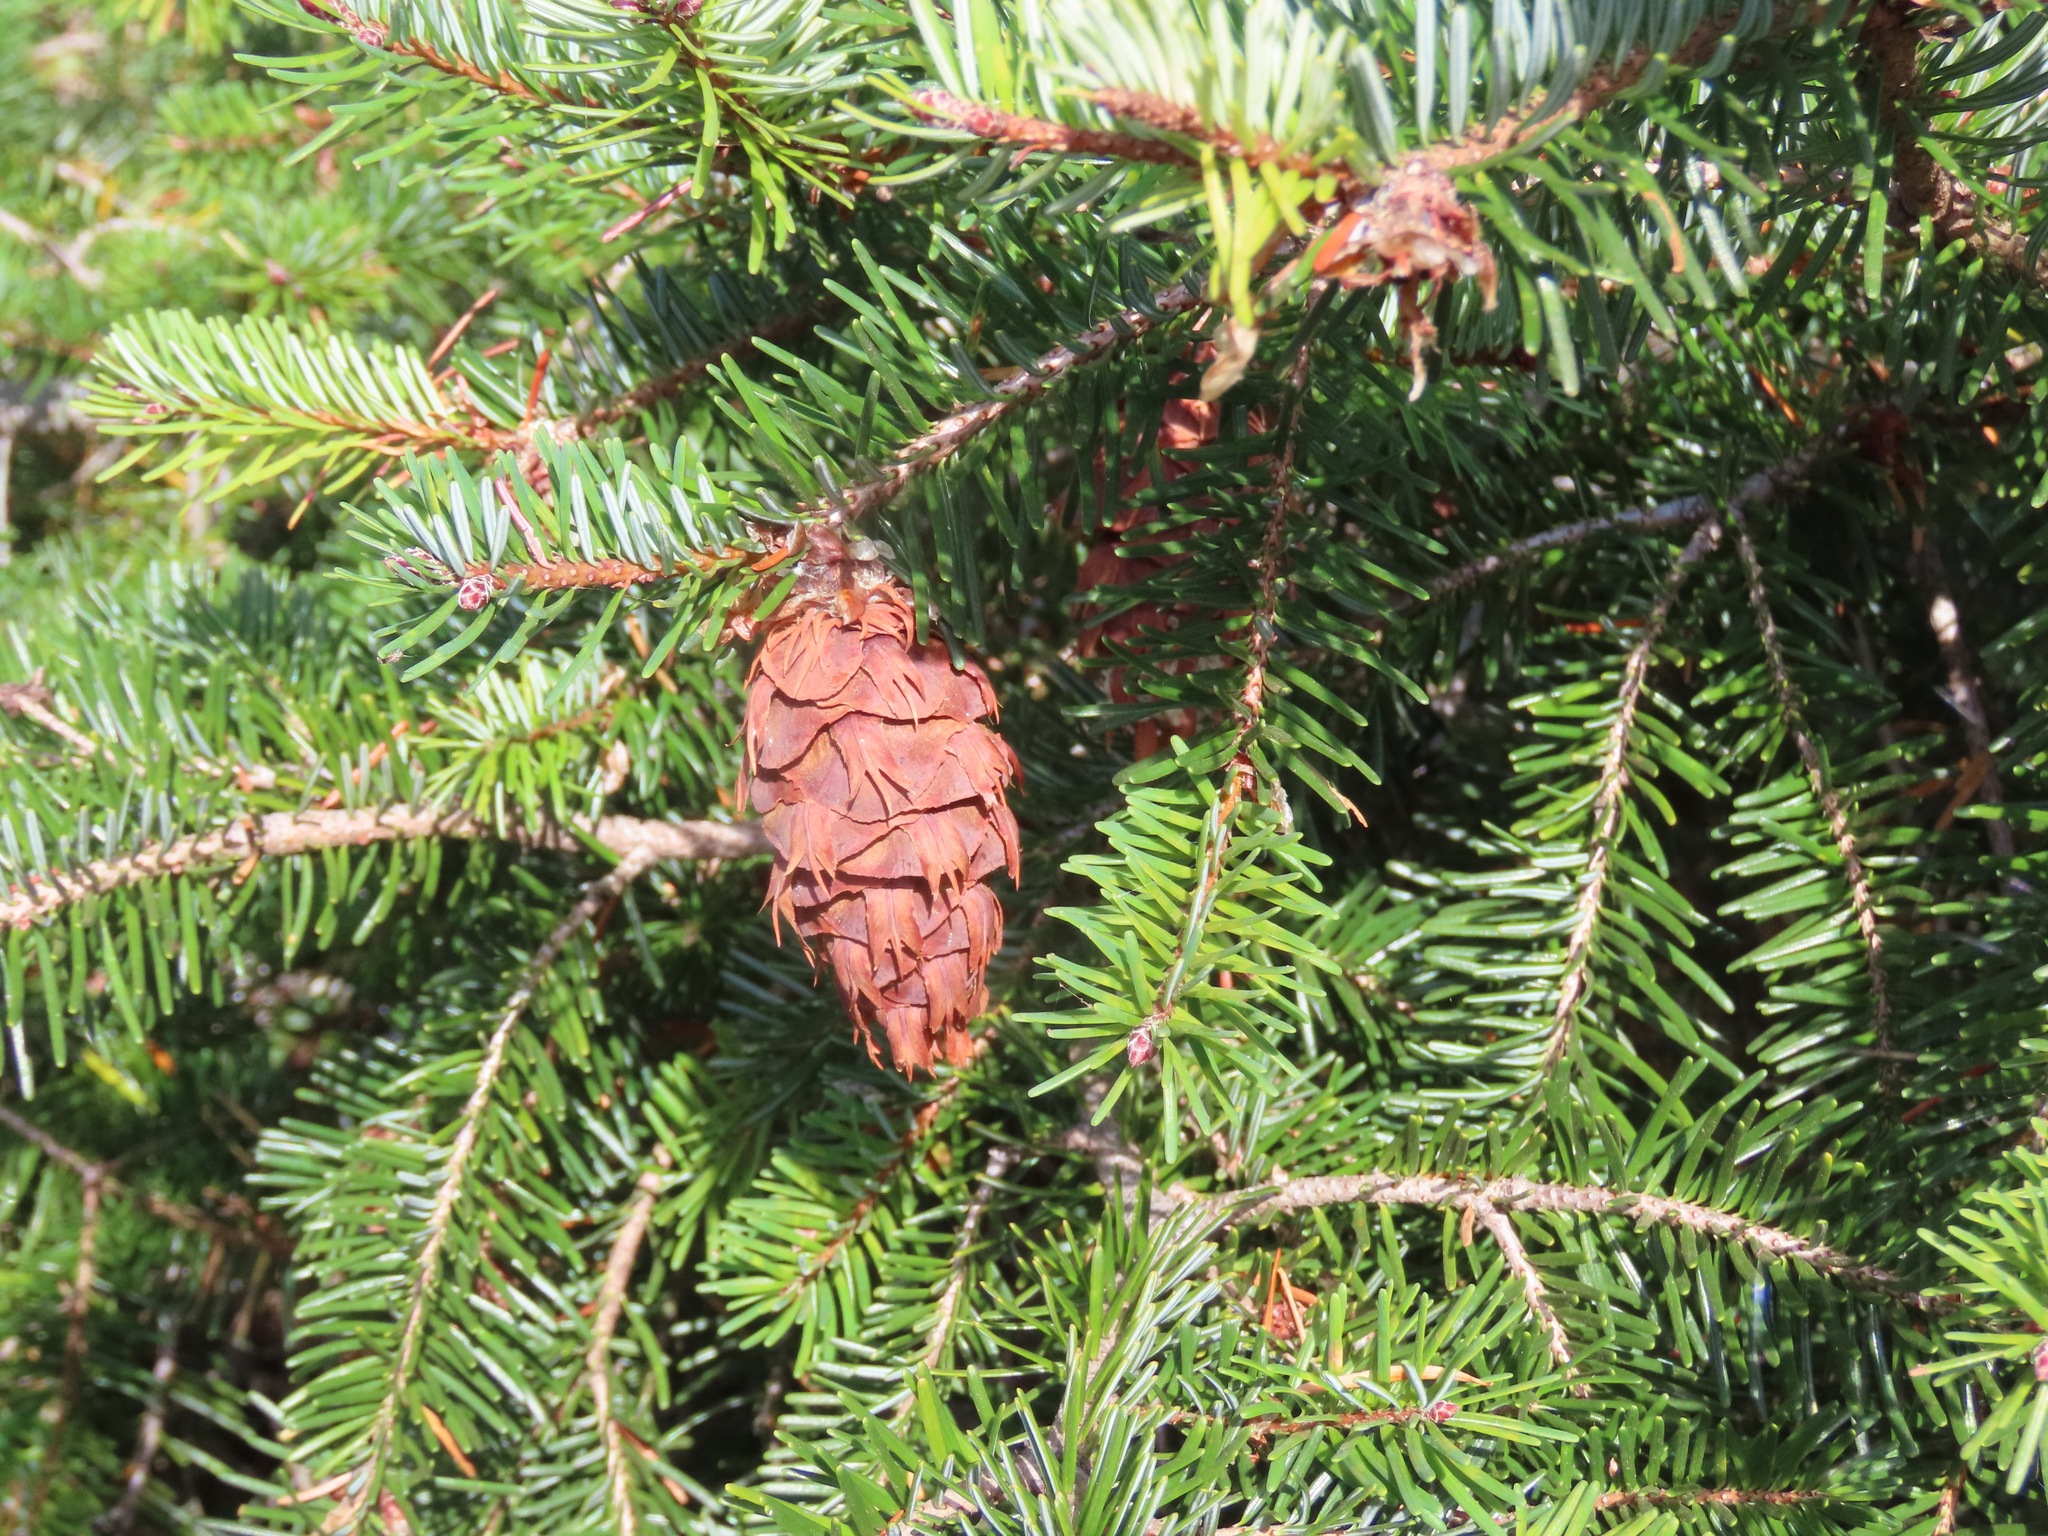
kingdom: Plantae
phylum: Tracheophyta
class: Pinopsida
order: Pinales
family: Pinaceae
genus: Pseudotsuga
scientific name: Pseudotsuga menziesii
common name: Douglas fir
